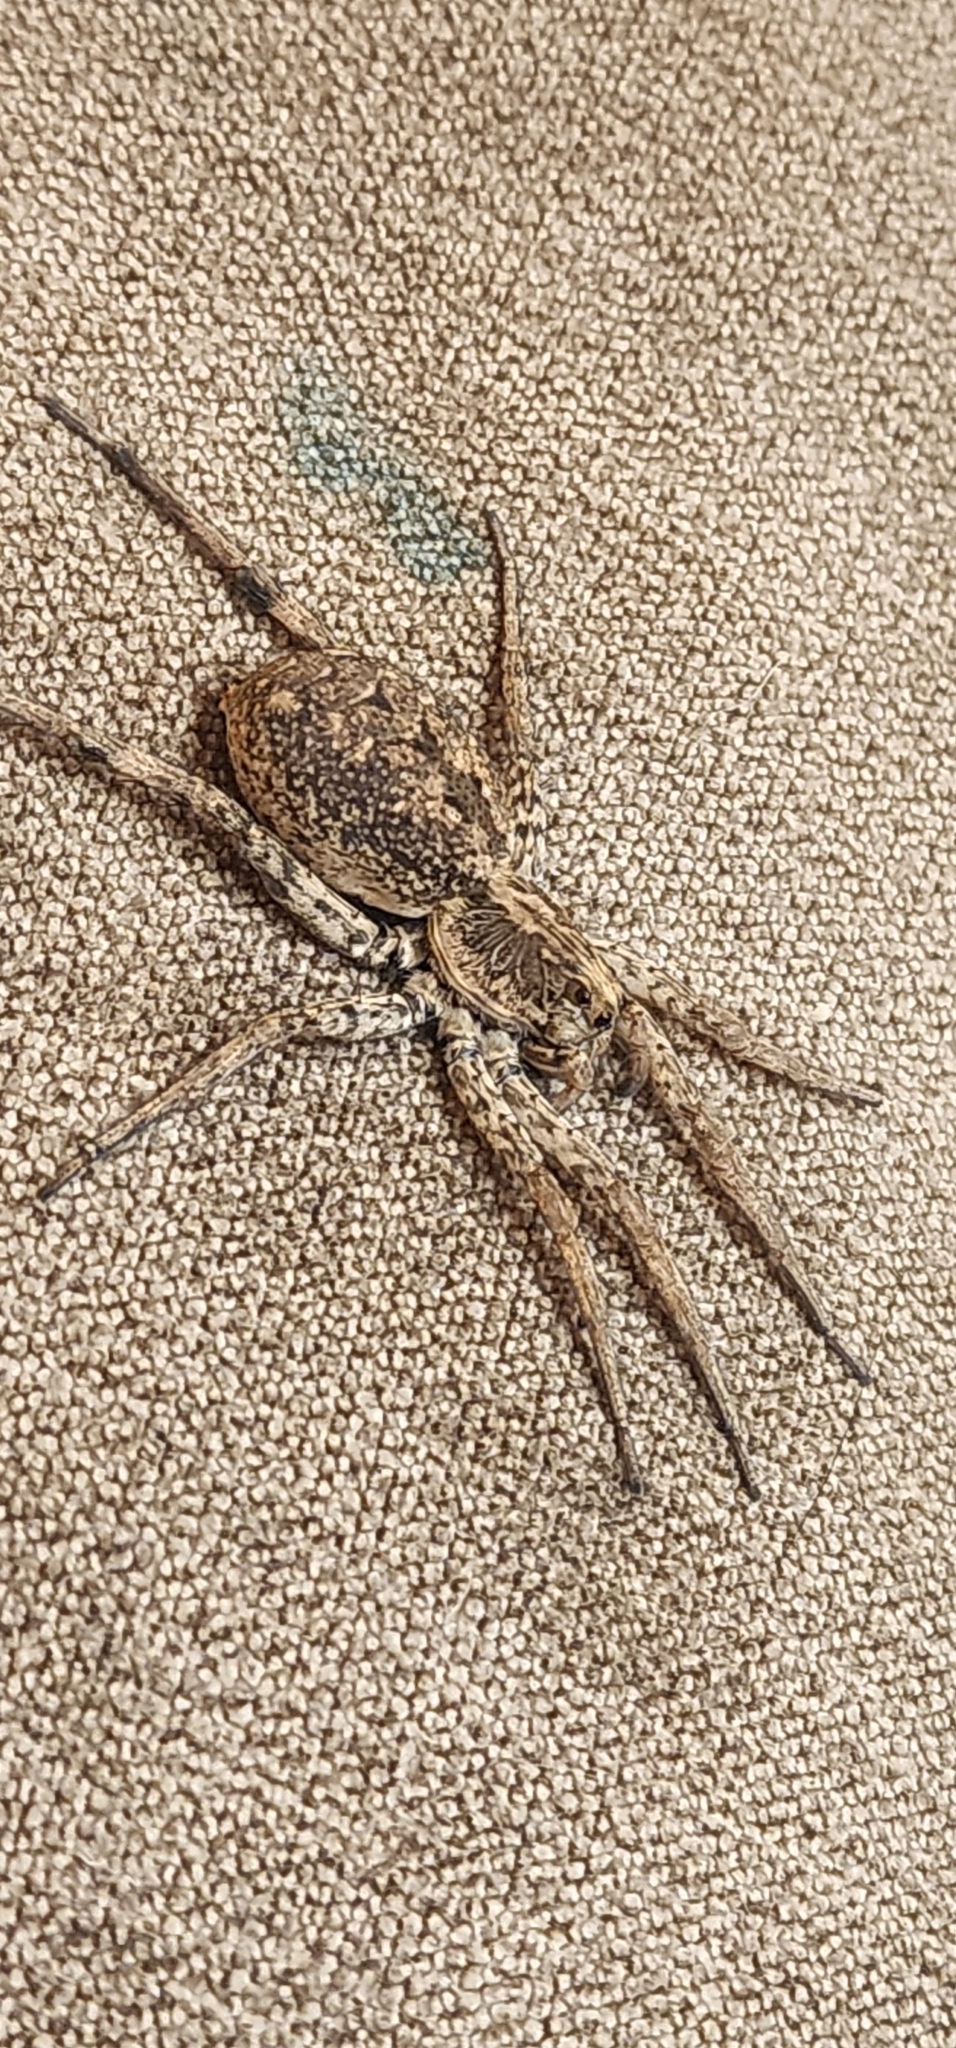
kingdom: Animalia
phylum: Arthropoda
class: Arachnida
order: Araneae
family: Lycosidae
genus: Hogna
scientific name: Hogna antelucana
